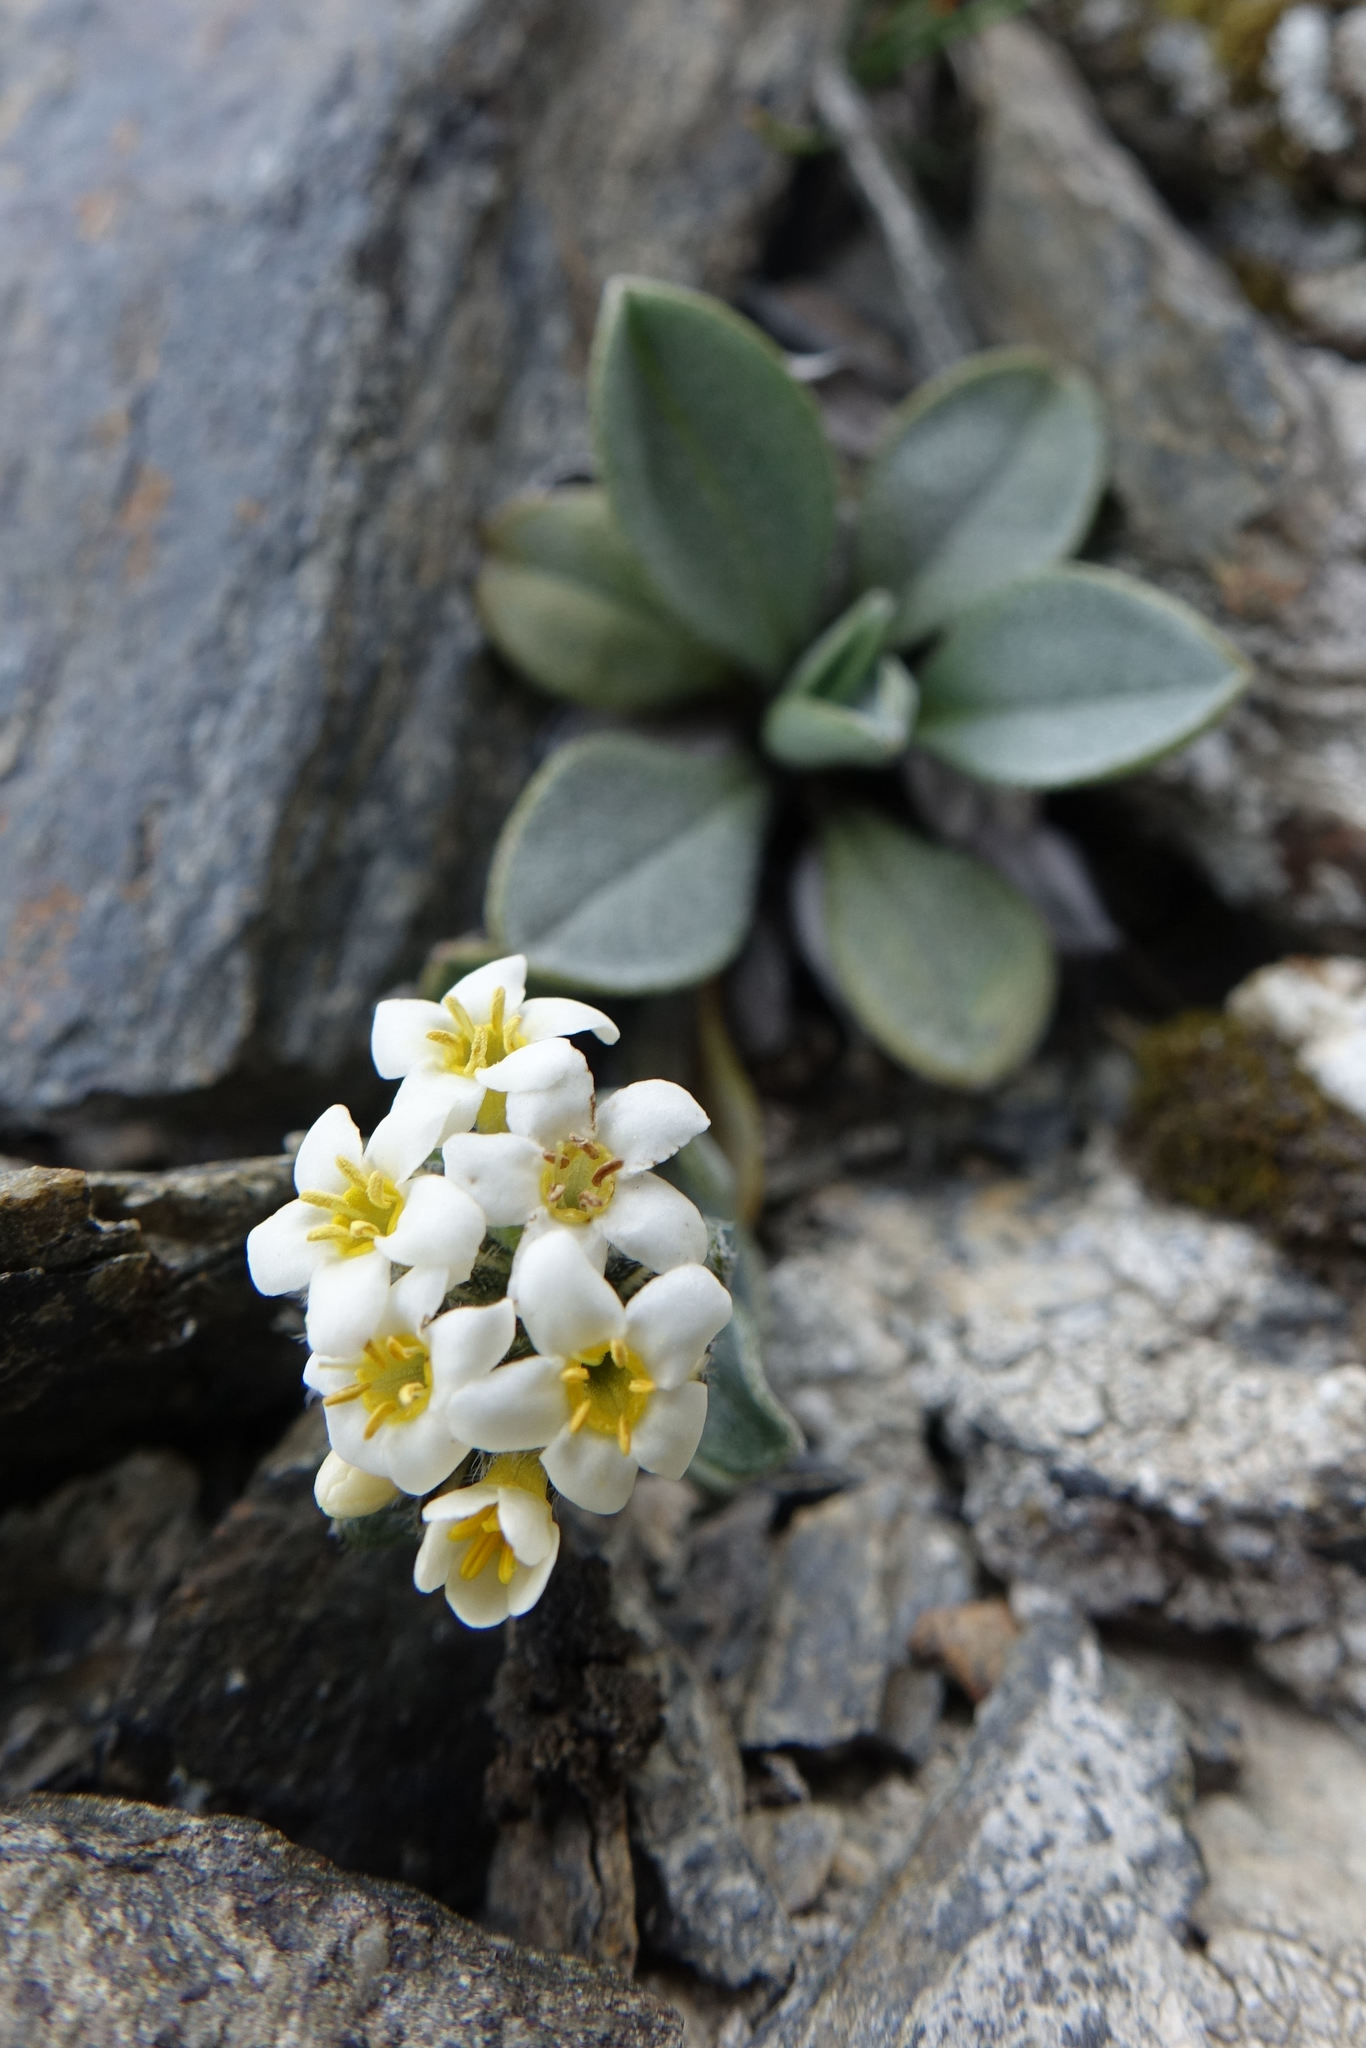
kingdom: Plantae
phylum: Tracheophyta
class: Magnoliopsida
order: Boraginales
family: Boraginaceae
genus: Myosotis
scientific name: Myosotis oreophila
